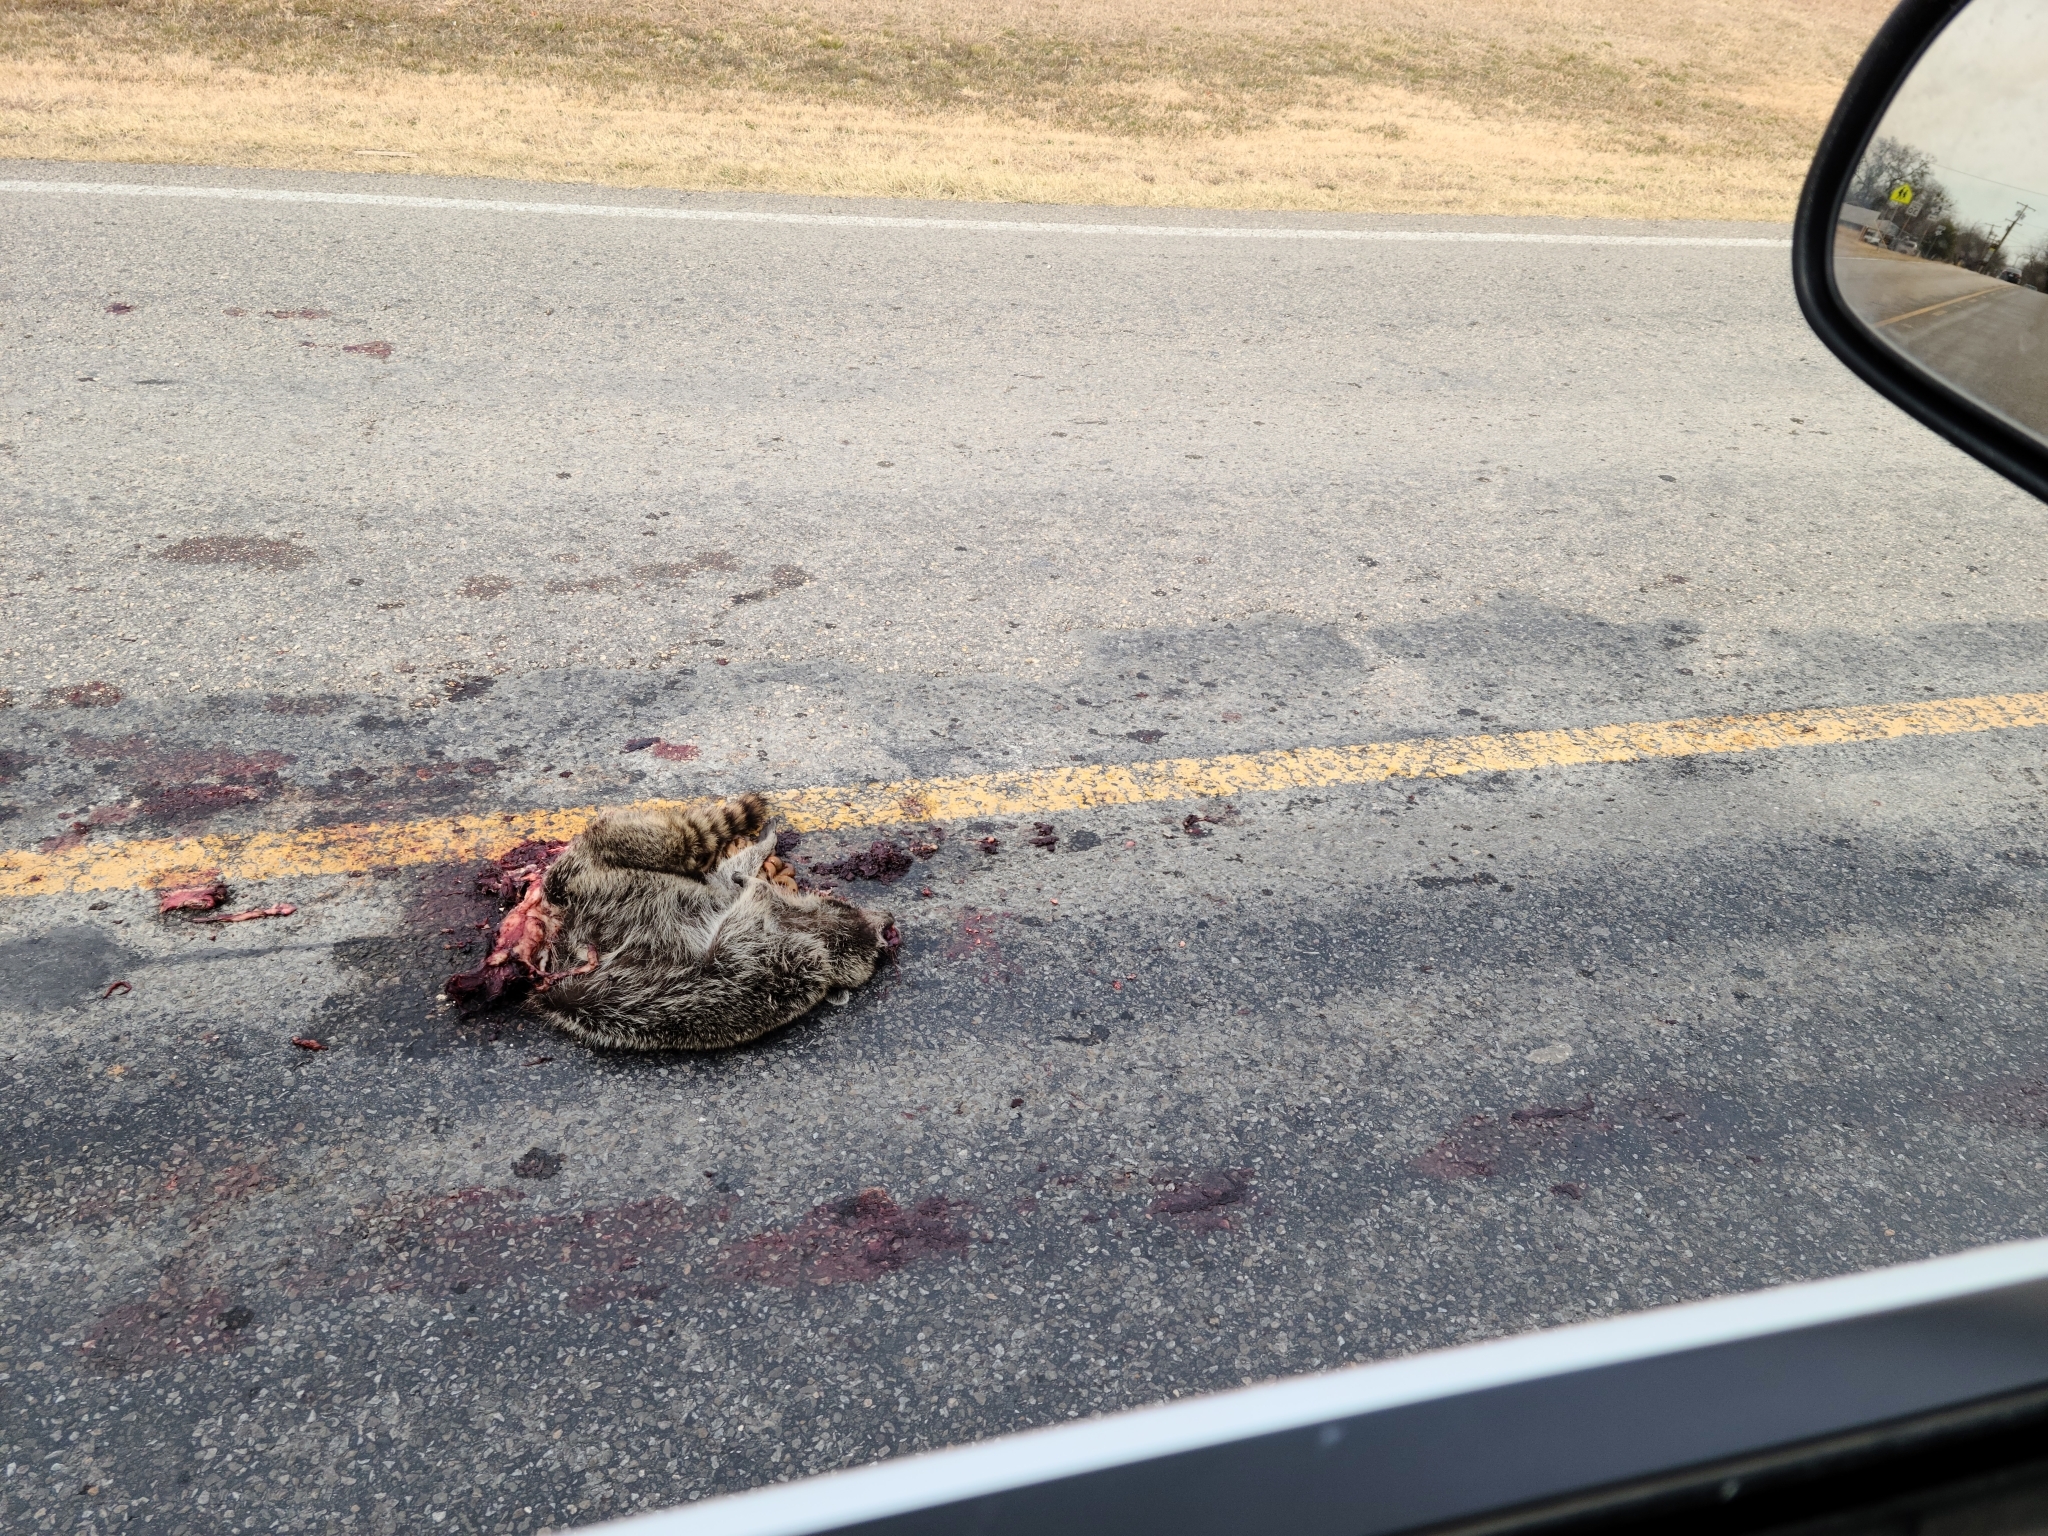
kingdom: Animalia
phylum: Chordata
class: Mammalia
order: Carnivora
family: Procyonidae
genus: Procyon
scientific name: Procyon lotor
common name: Raccoon
